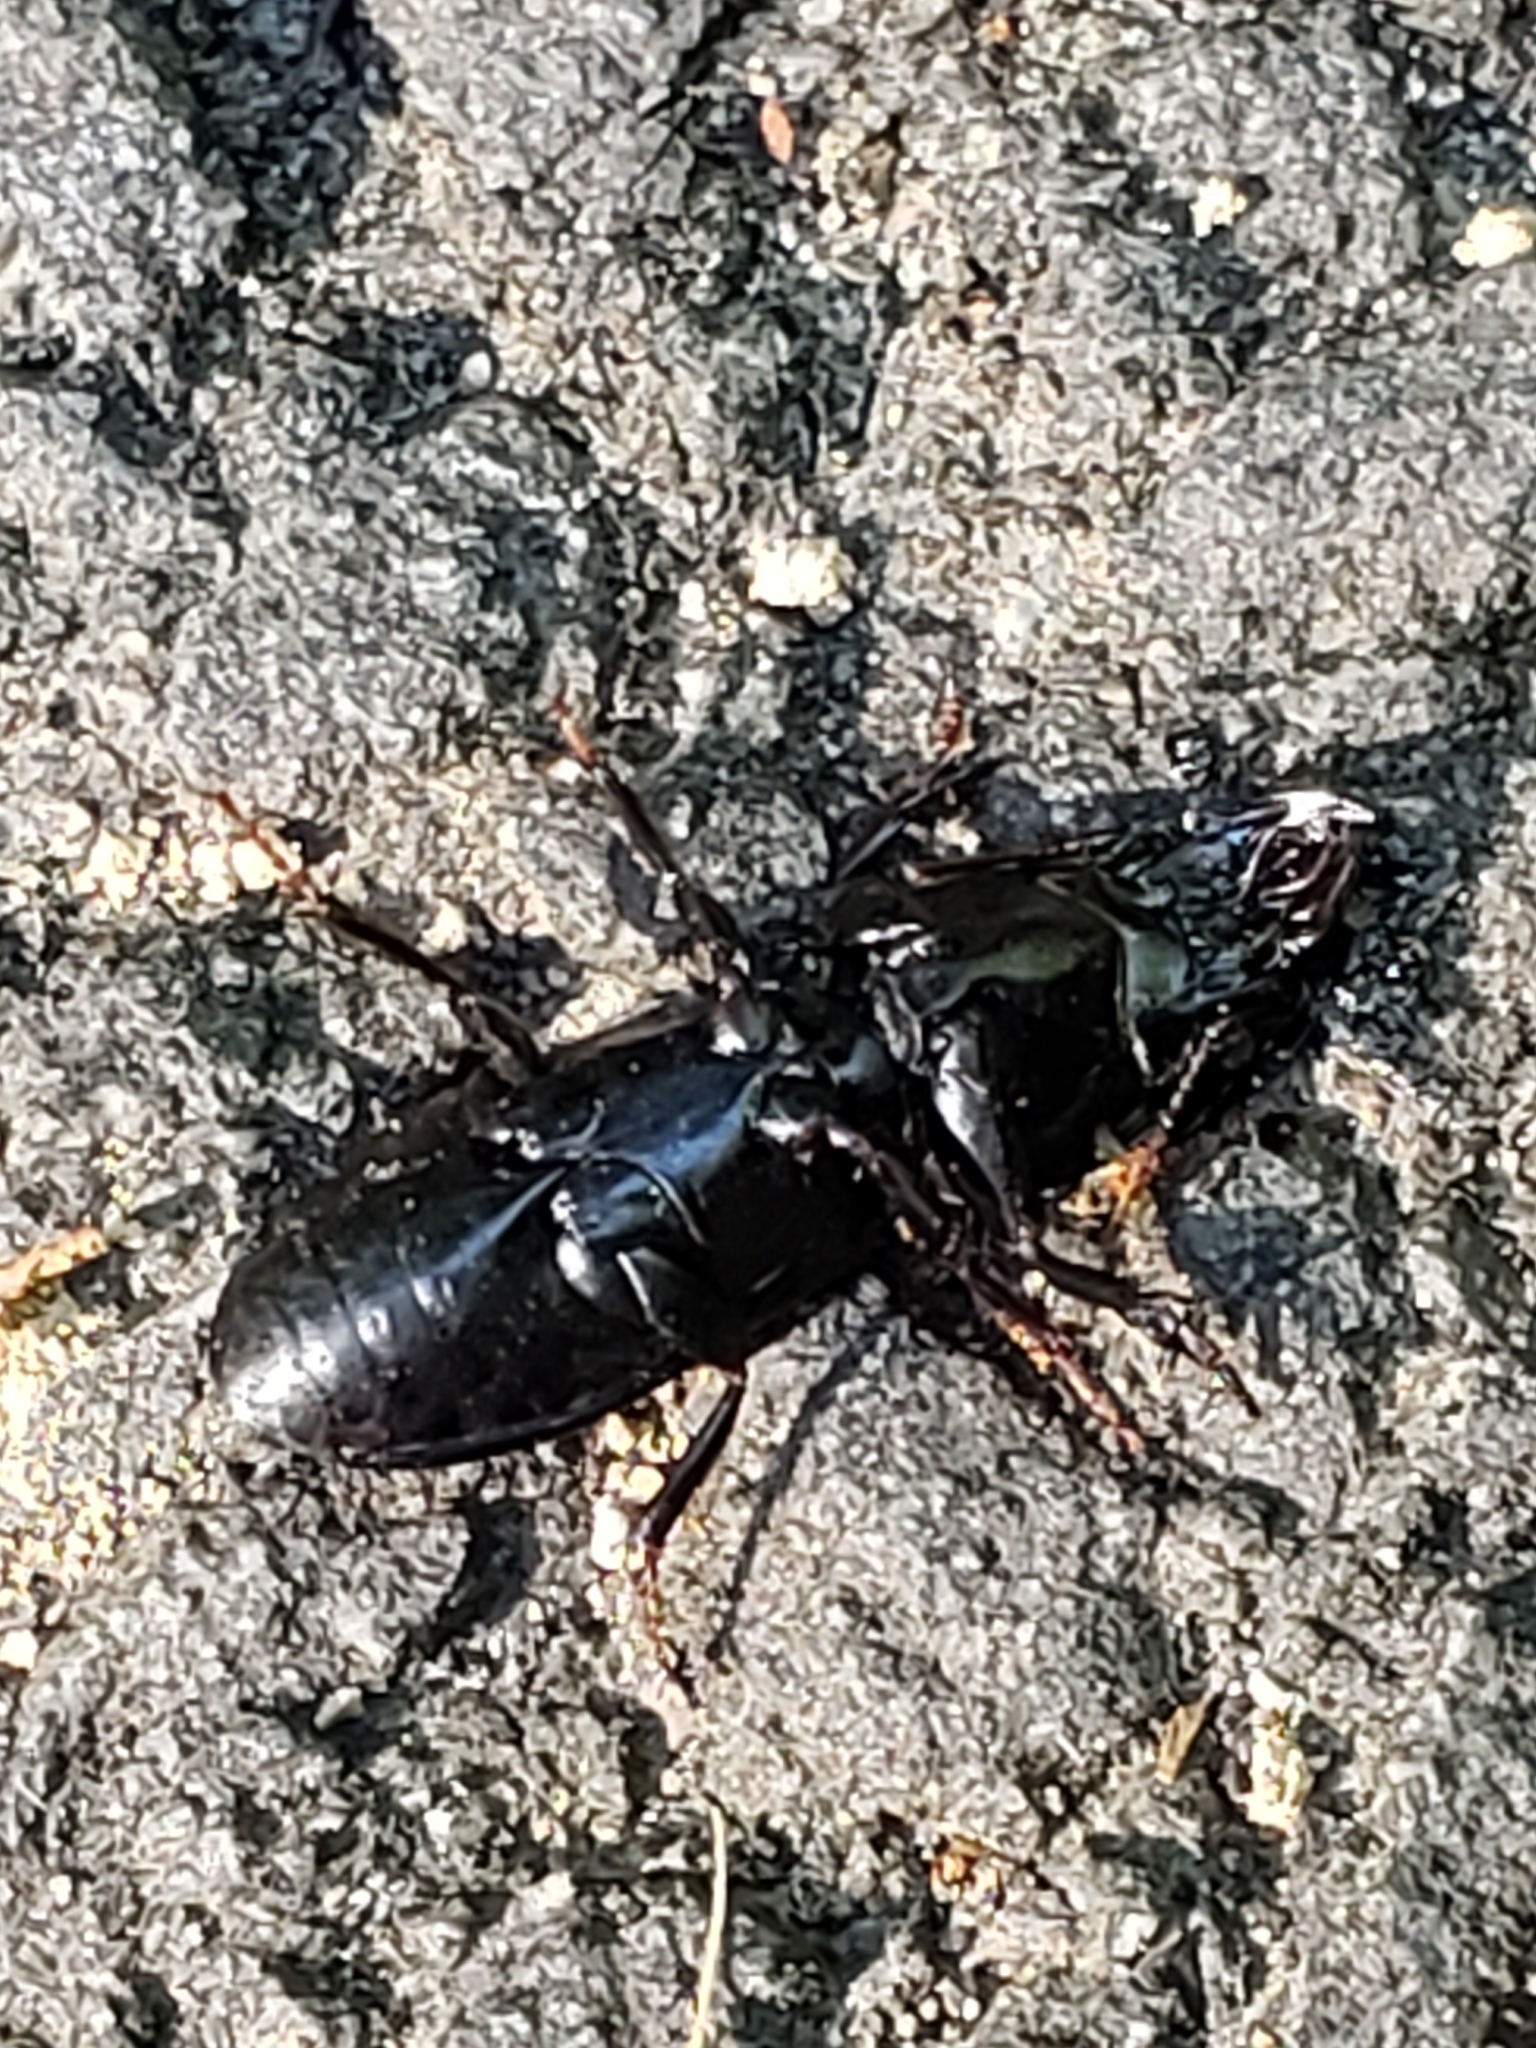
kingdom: Animalia
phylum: Arthropoda
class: Insecta
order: Coleoptera
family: Carabidae
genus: Scarites
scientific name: Scarites subterraneus
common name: Big-headed ground beetle
